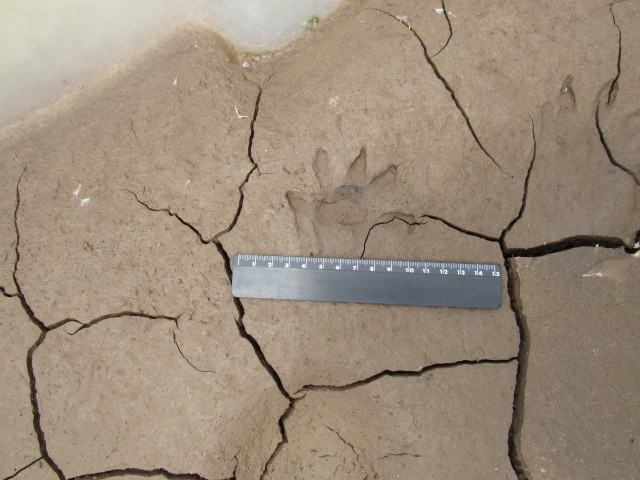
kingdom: Animalia
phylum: Chordata
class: Mammalia
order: Carnivora
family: Procyonidae
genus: Procyon
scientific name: Procyon lotor
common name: Raccoon
